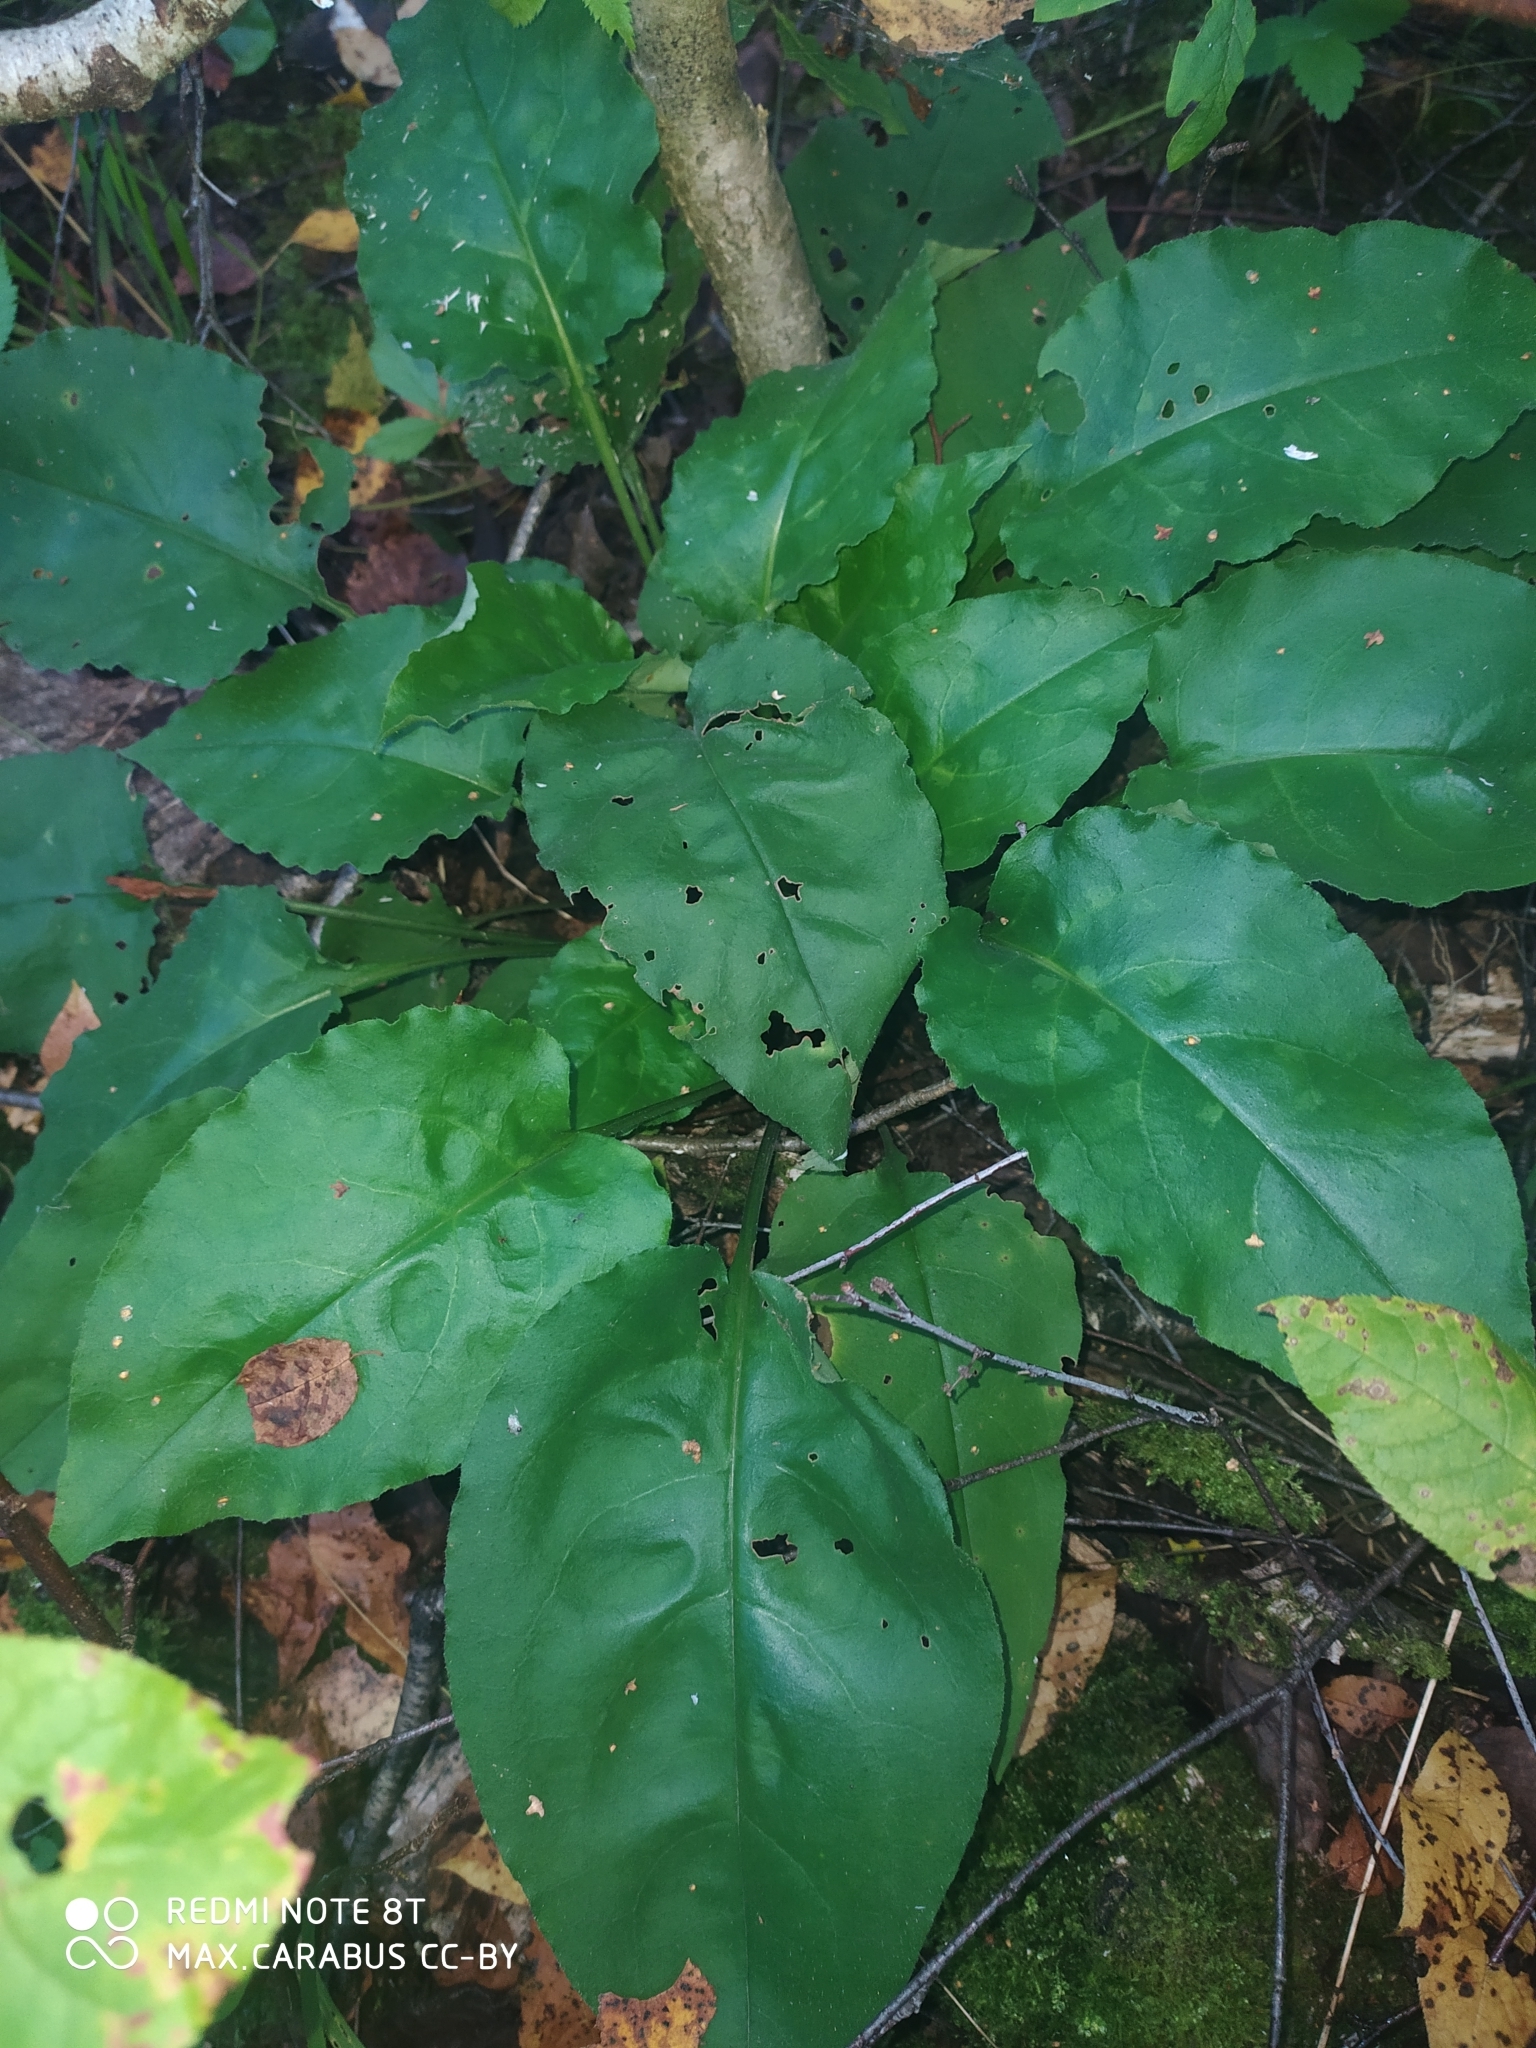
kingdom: Plantae
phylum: Tracheophyta
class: Magnoliopsida
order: Boraginales
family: Boraginaceae
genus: Pulmonaria
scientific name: Pulmonaria obscura
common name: Suffolk lungwort
